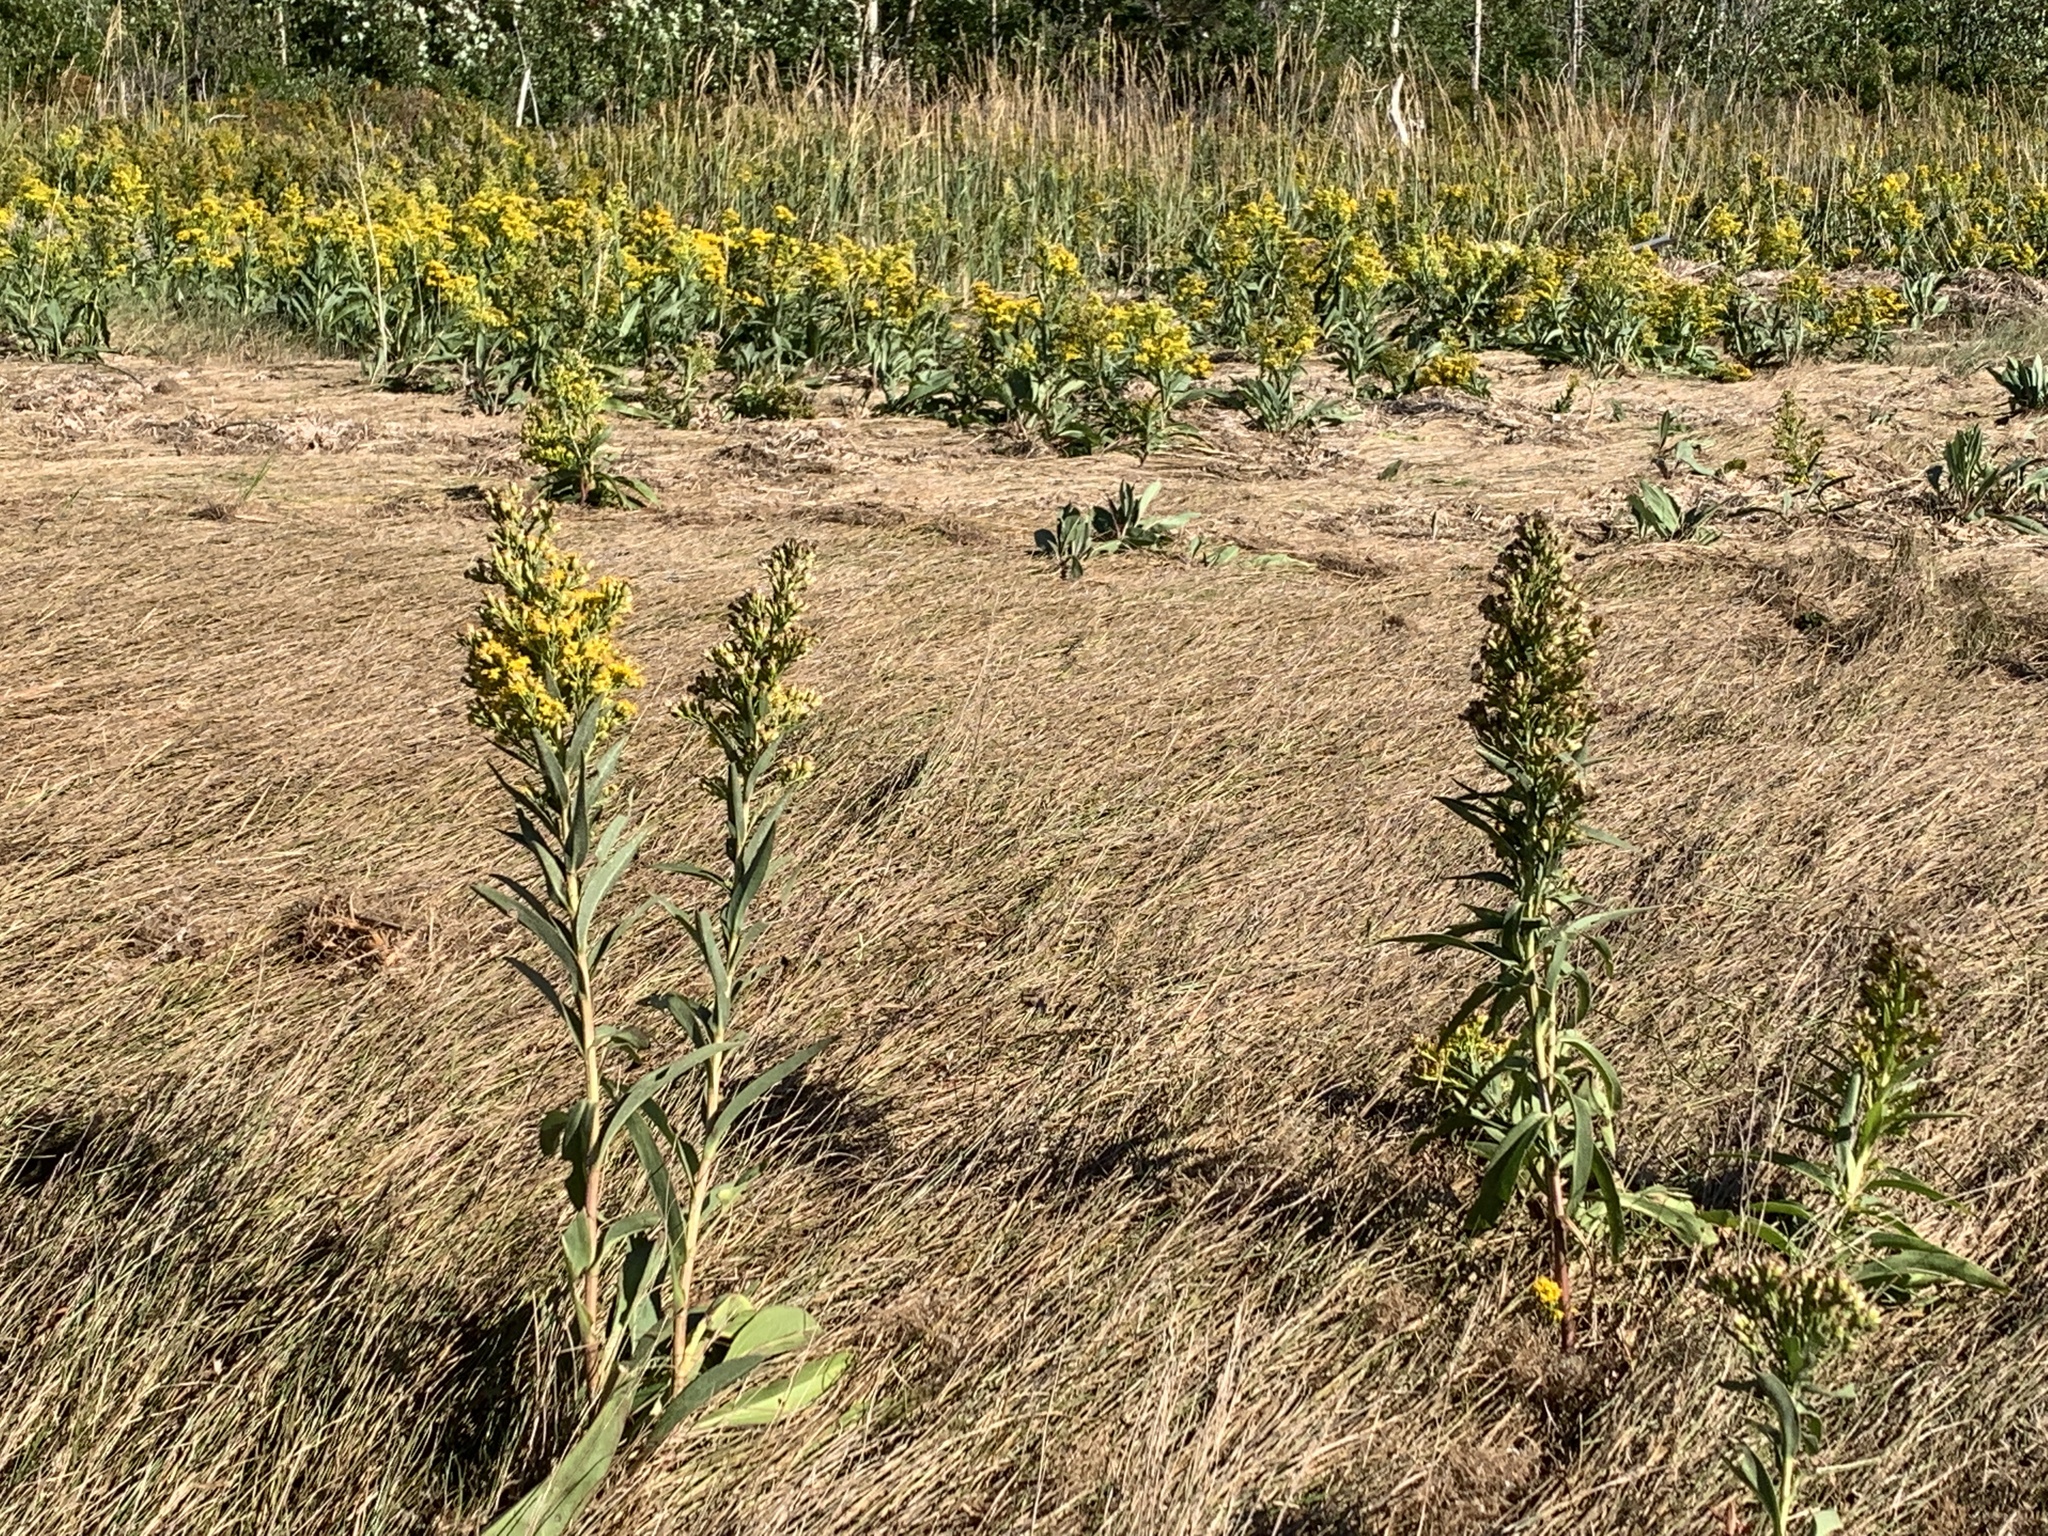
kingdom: Plantae
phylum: Tracheophyta
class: Magnoliopsida
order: Asterales
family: Asteraceae
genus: Solidago
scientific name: Solidago sempervirens
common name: Salt-marsh goldenrod
